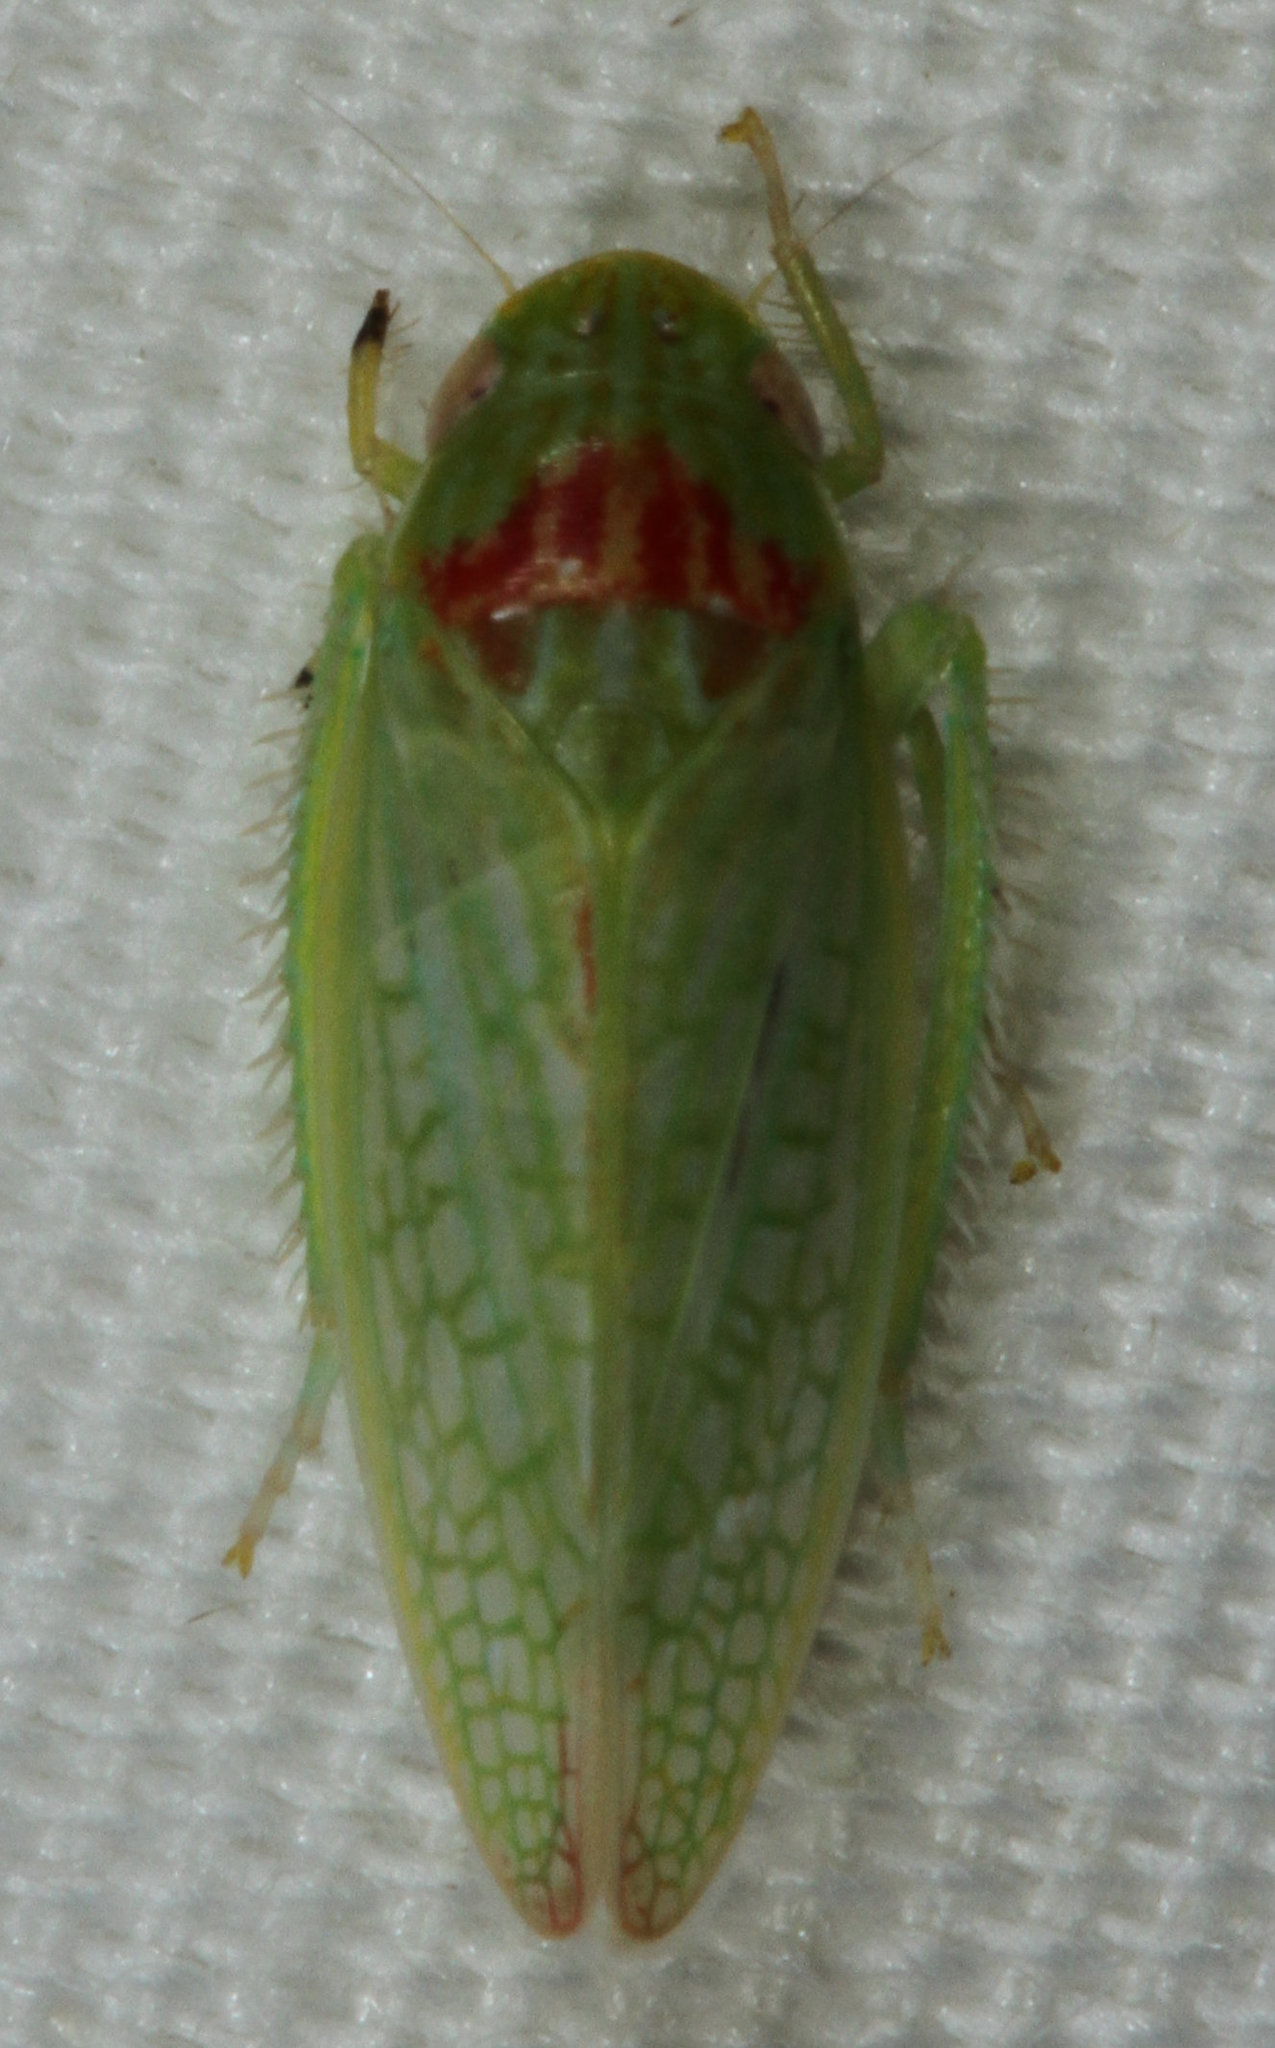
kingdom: Animalia
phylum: Arthropoda
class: Insecta
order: Hemiptera
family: Cicadellidae
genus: Gyponana
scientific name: Gyponana octolineata
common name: Eight-lined leafhopper
